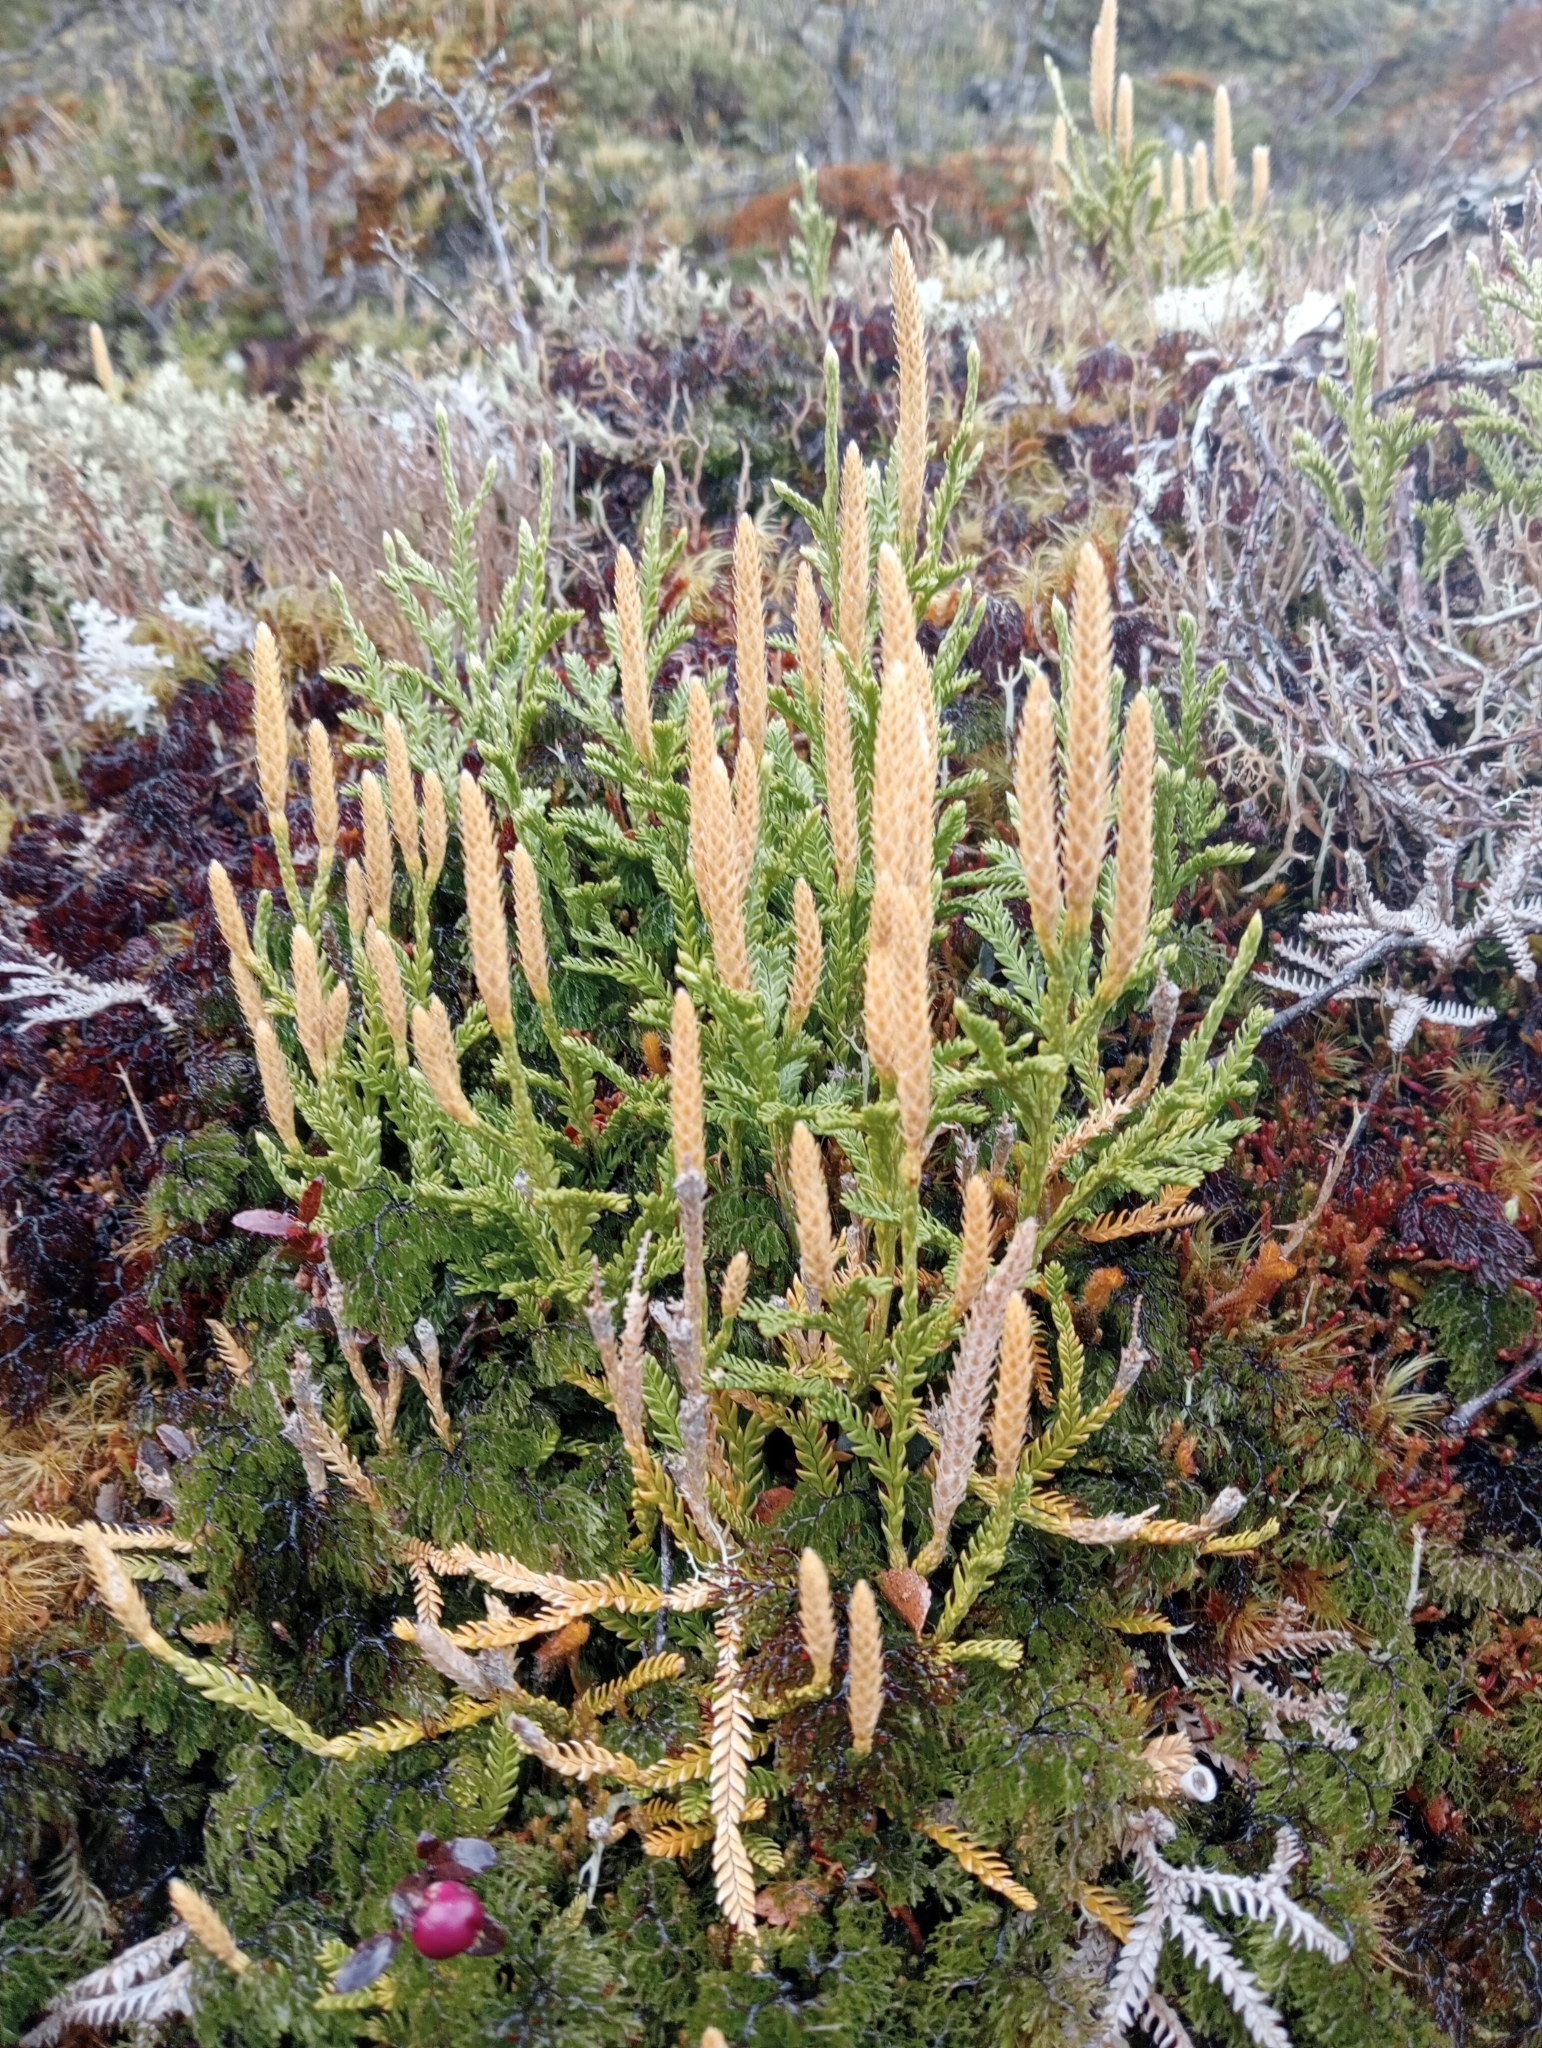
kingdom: Plantae
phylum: Tracheophyta
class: Lycopodiopsida
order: Lycopodiales
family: Lycopodiaceae
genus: Diphasium
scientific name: Diphasium scariosum
